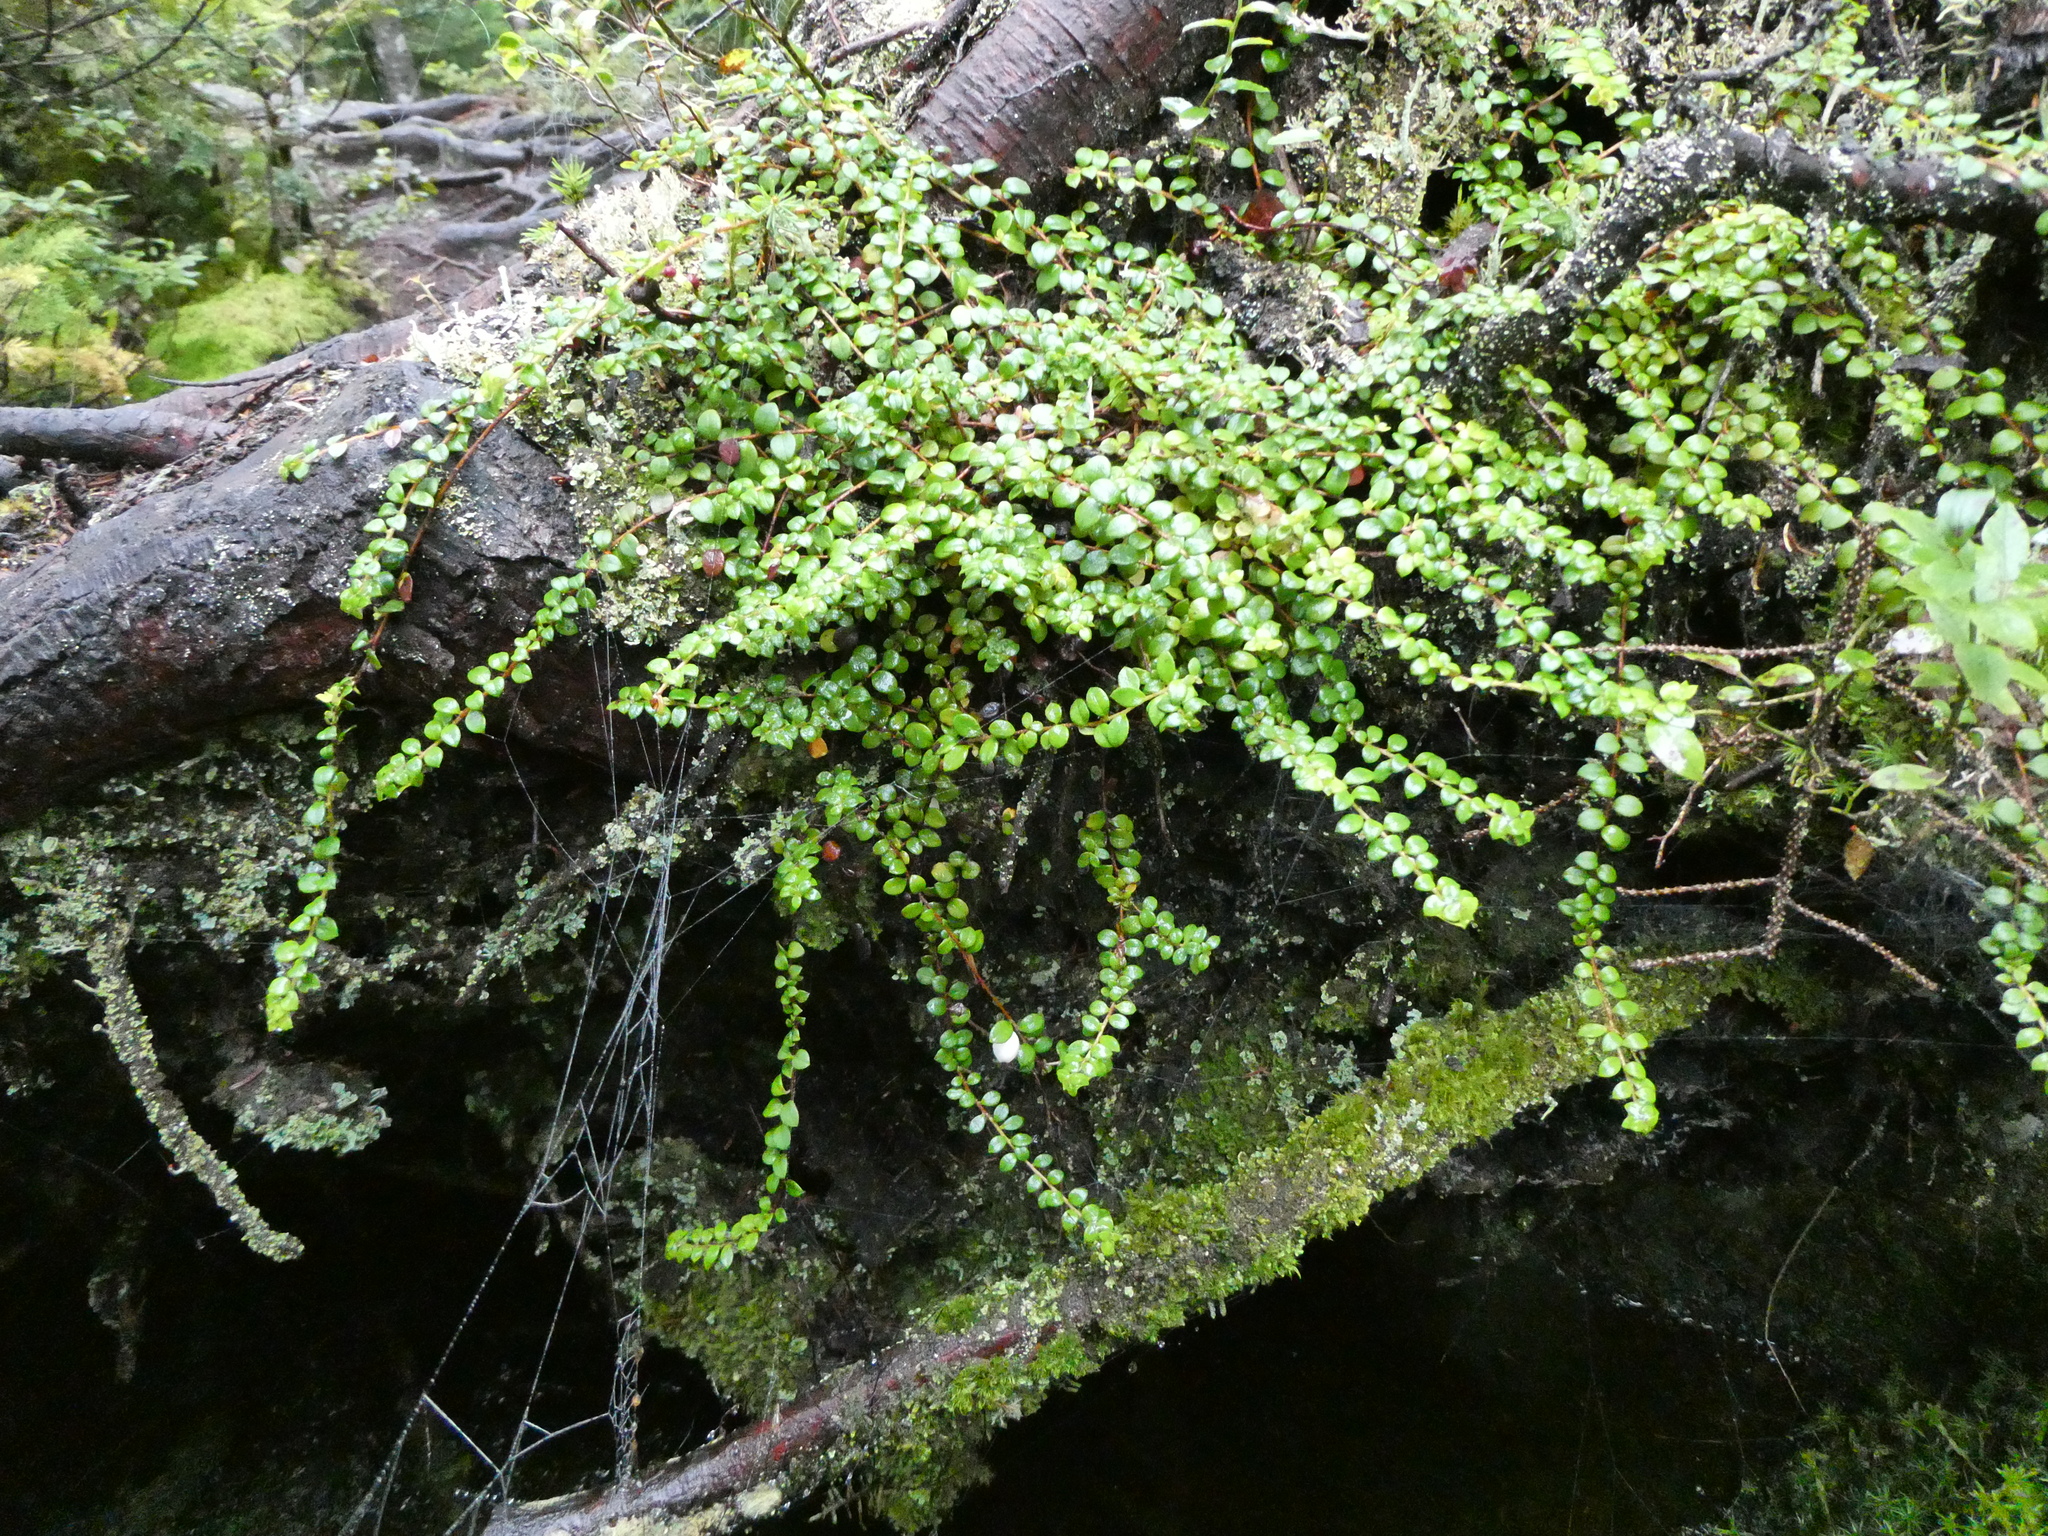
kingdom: Plantae
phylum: Tracheophyta
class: Magnoliopsida
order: Ericales
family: Ericaceae
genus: Gaultheria
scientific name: Gaultheria hispidula
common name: Cancer wintergreen
